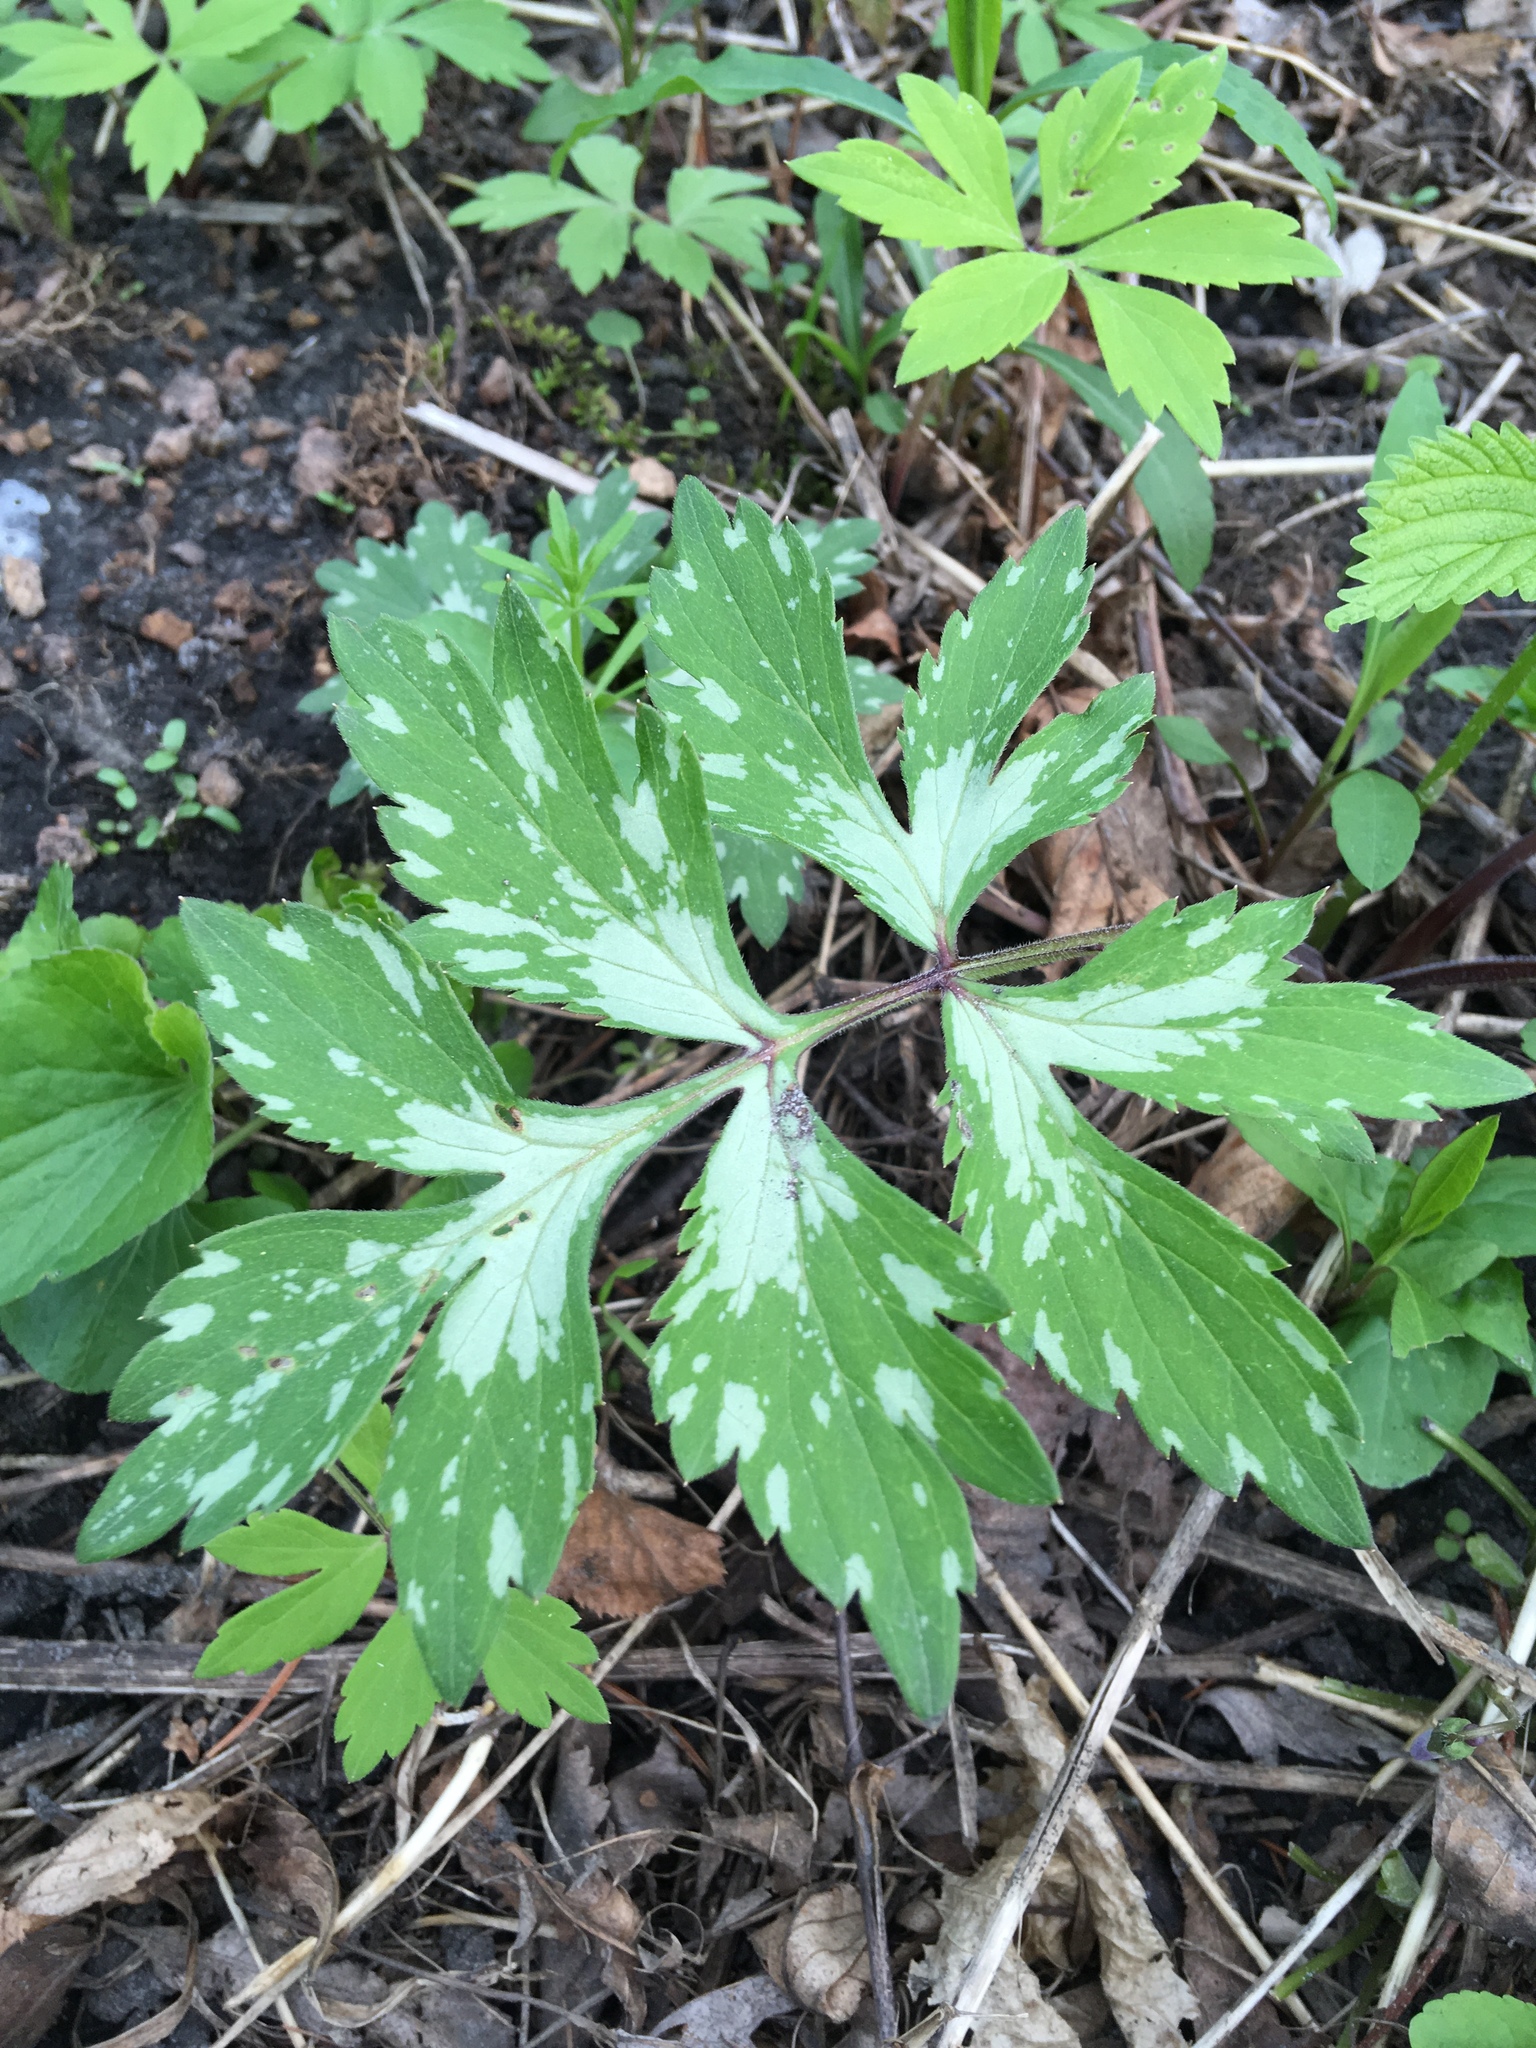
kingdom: Plantae
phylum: Tracheophyta
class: Magnoliopsida
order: Boraginales
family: Hydrophyllaceae
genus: Hydrophyllum
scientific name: Hydrophyllum virginianum
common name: Virginia waterleaf
